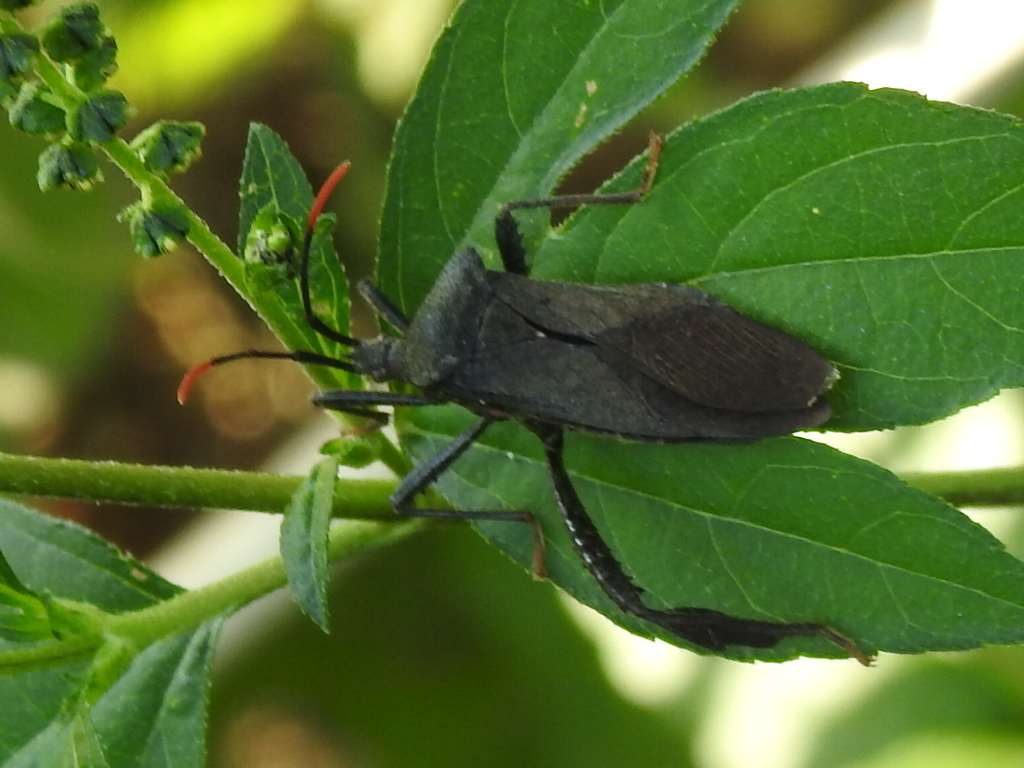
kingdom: Animalia
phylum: Arthropoda
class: Insecta
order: Hemiptera
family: Coreidae
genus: Acanthocephala
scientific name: Acanthocephala terminalis
